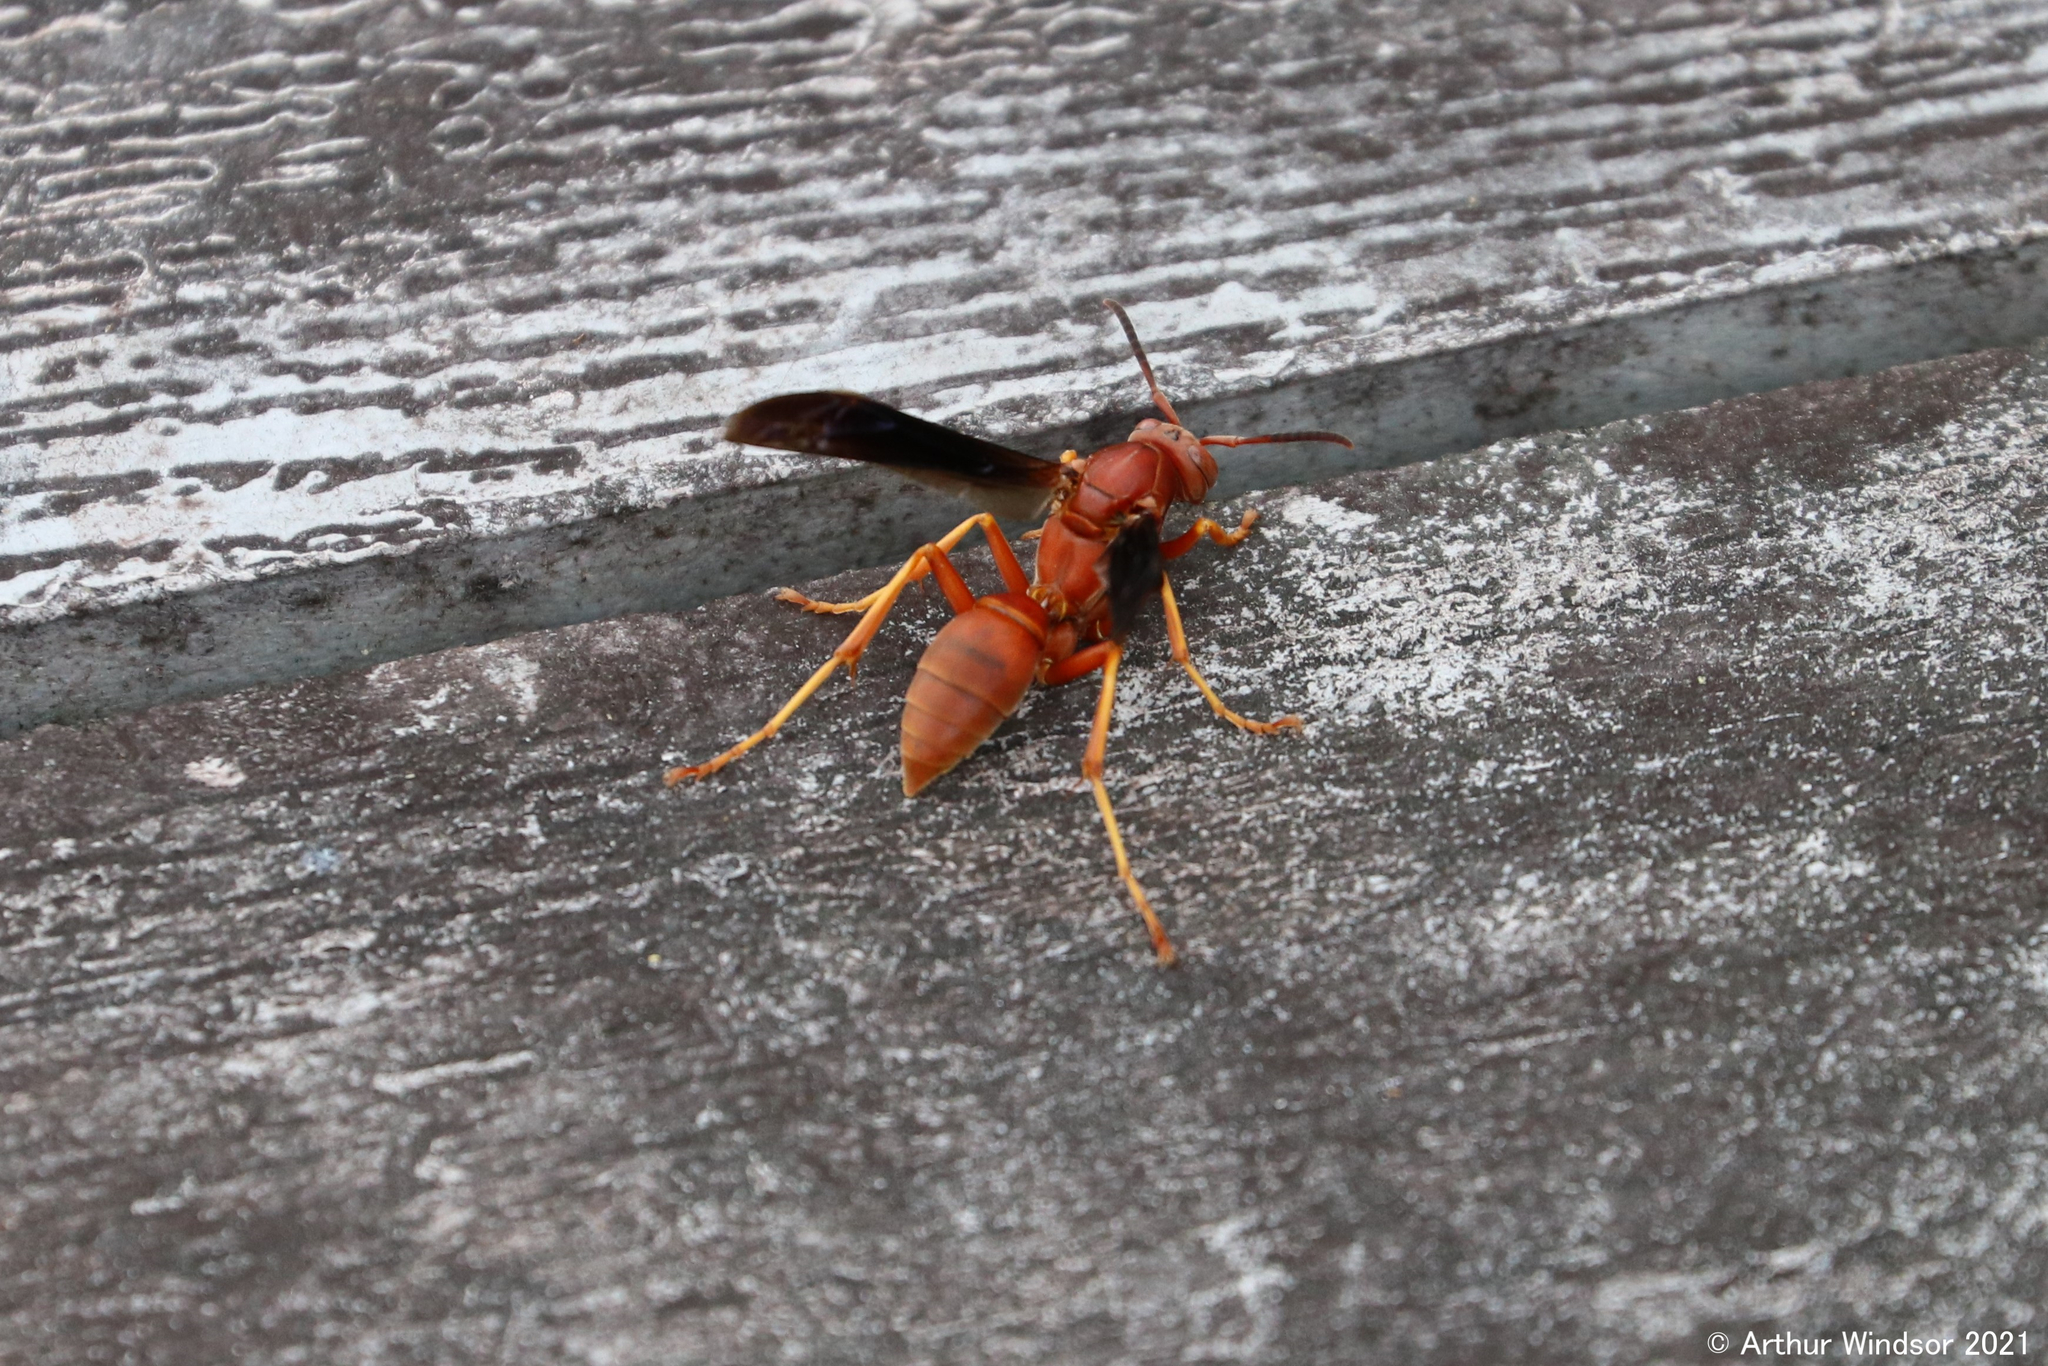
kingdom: Animalia
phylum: Arthropoda
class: Insecta
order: Hymenoptera
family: Eumenidae
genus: Polistes
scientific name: Polistes carolina
